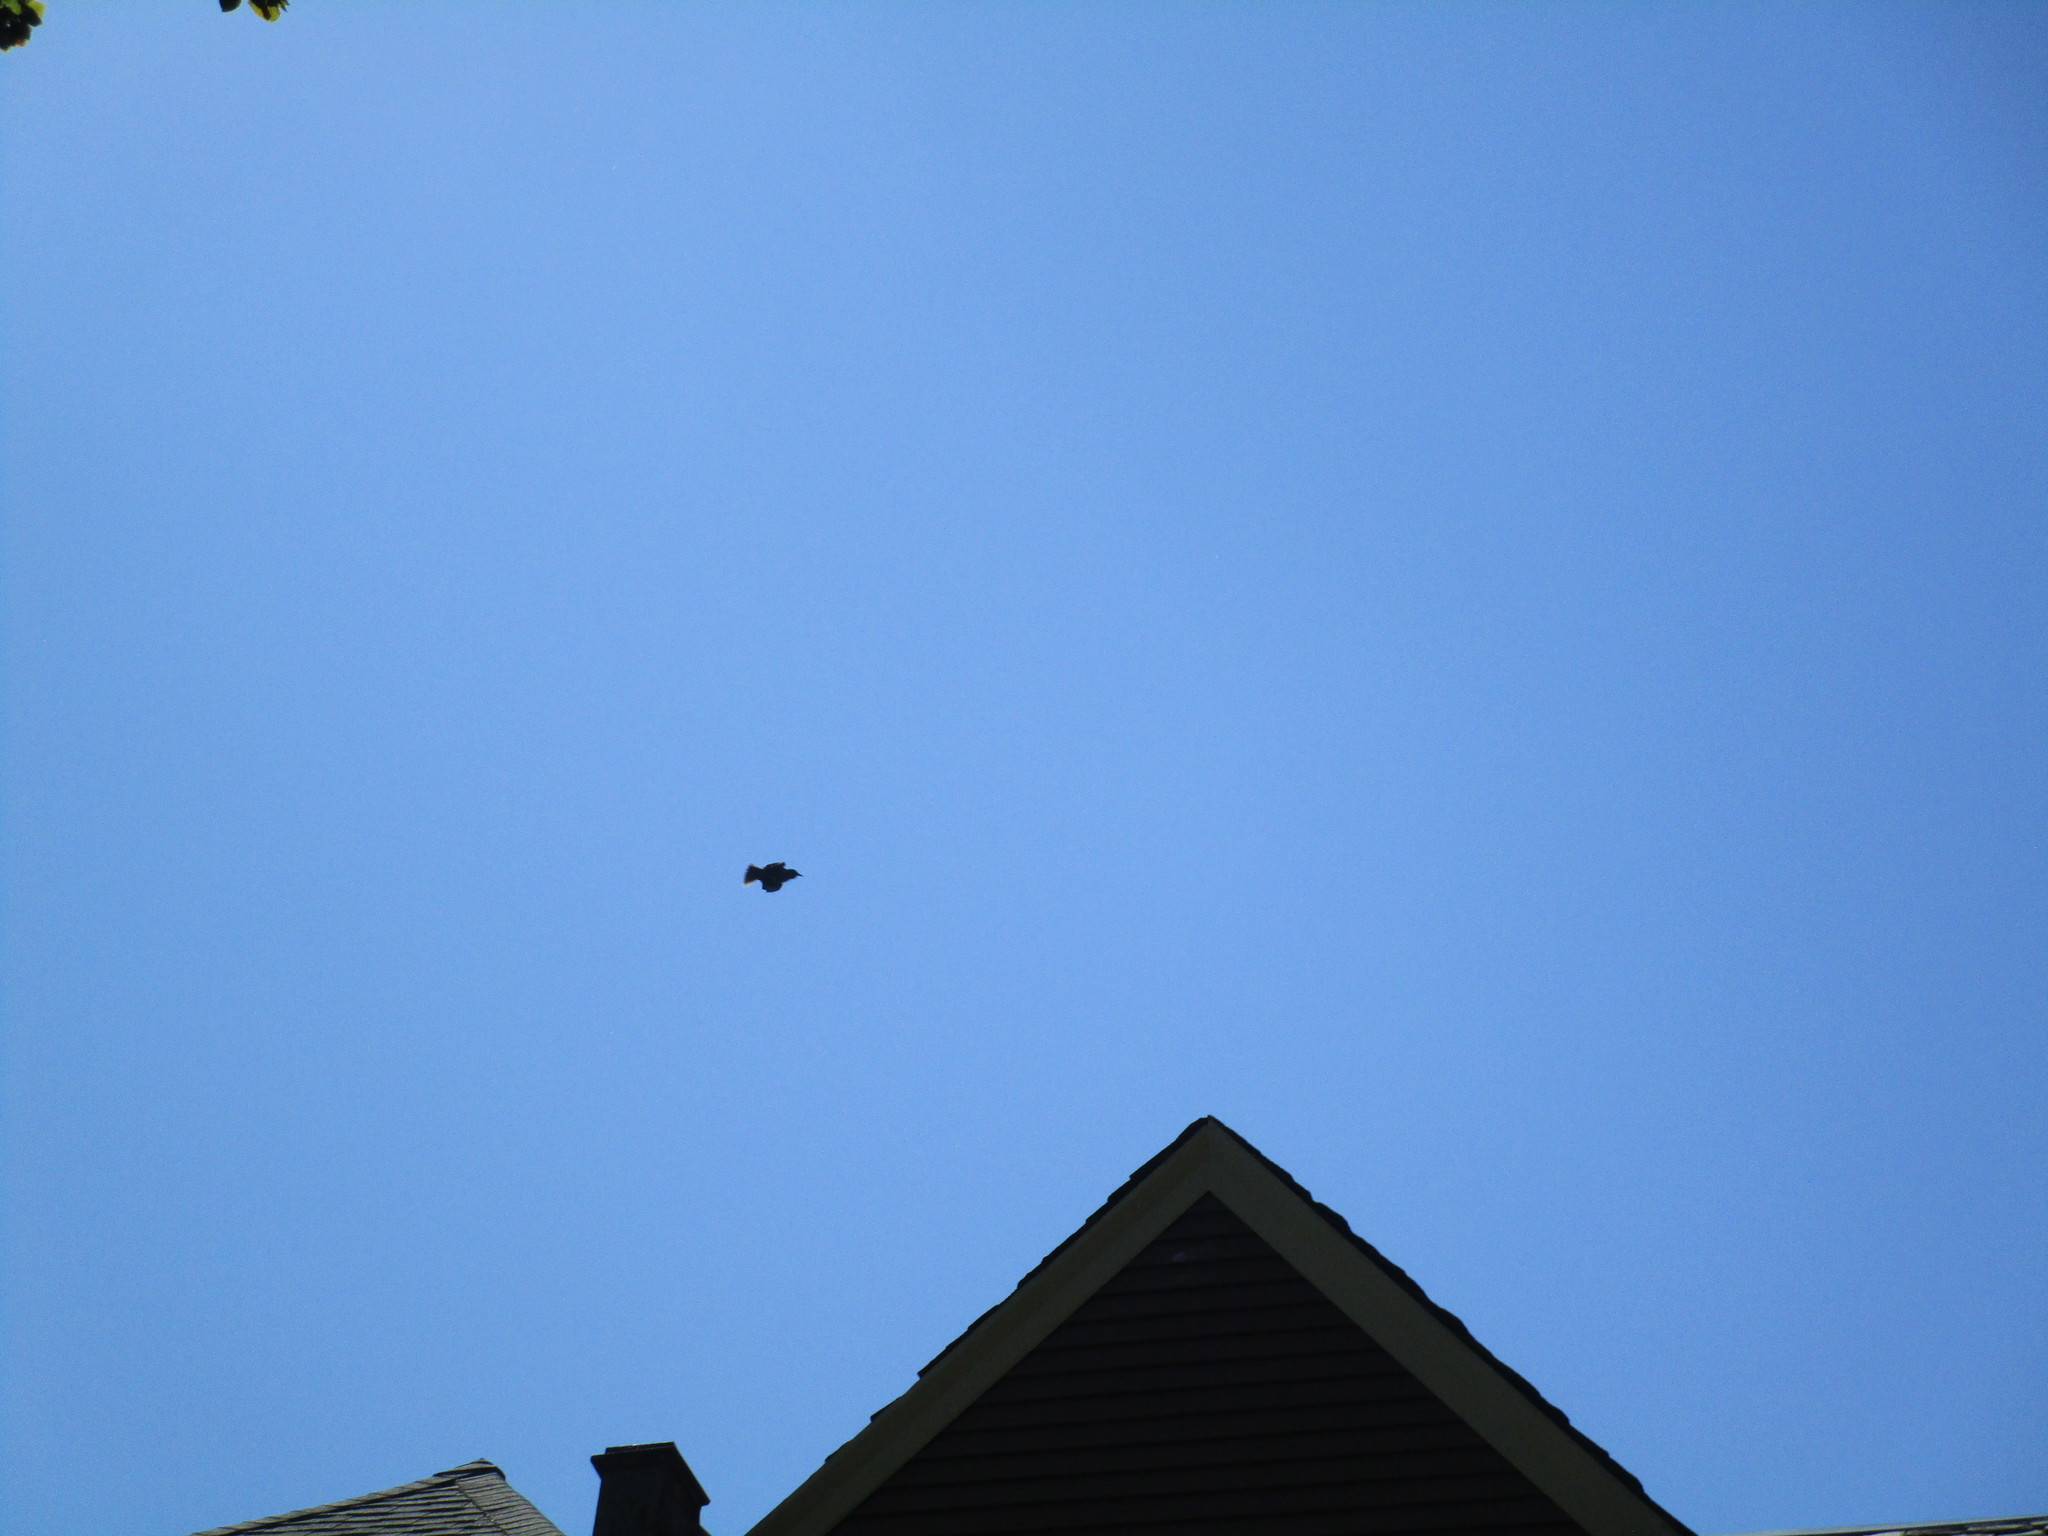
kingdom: Animalia
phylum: Chordata
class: Aves
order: Passeriformes
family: Turdidae
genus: Turdus
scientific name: Turdus migratorius
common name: American robin
